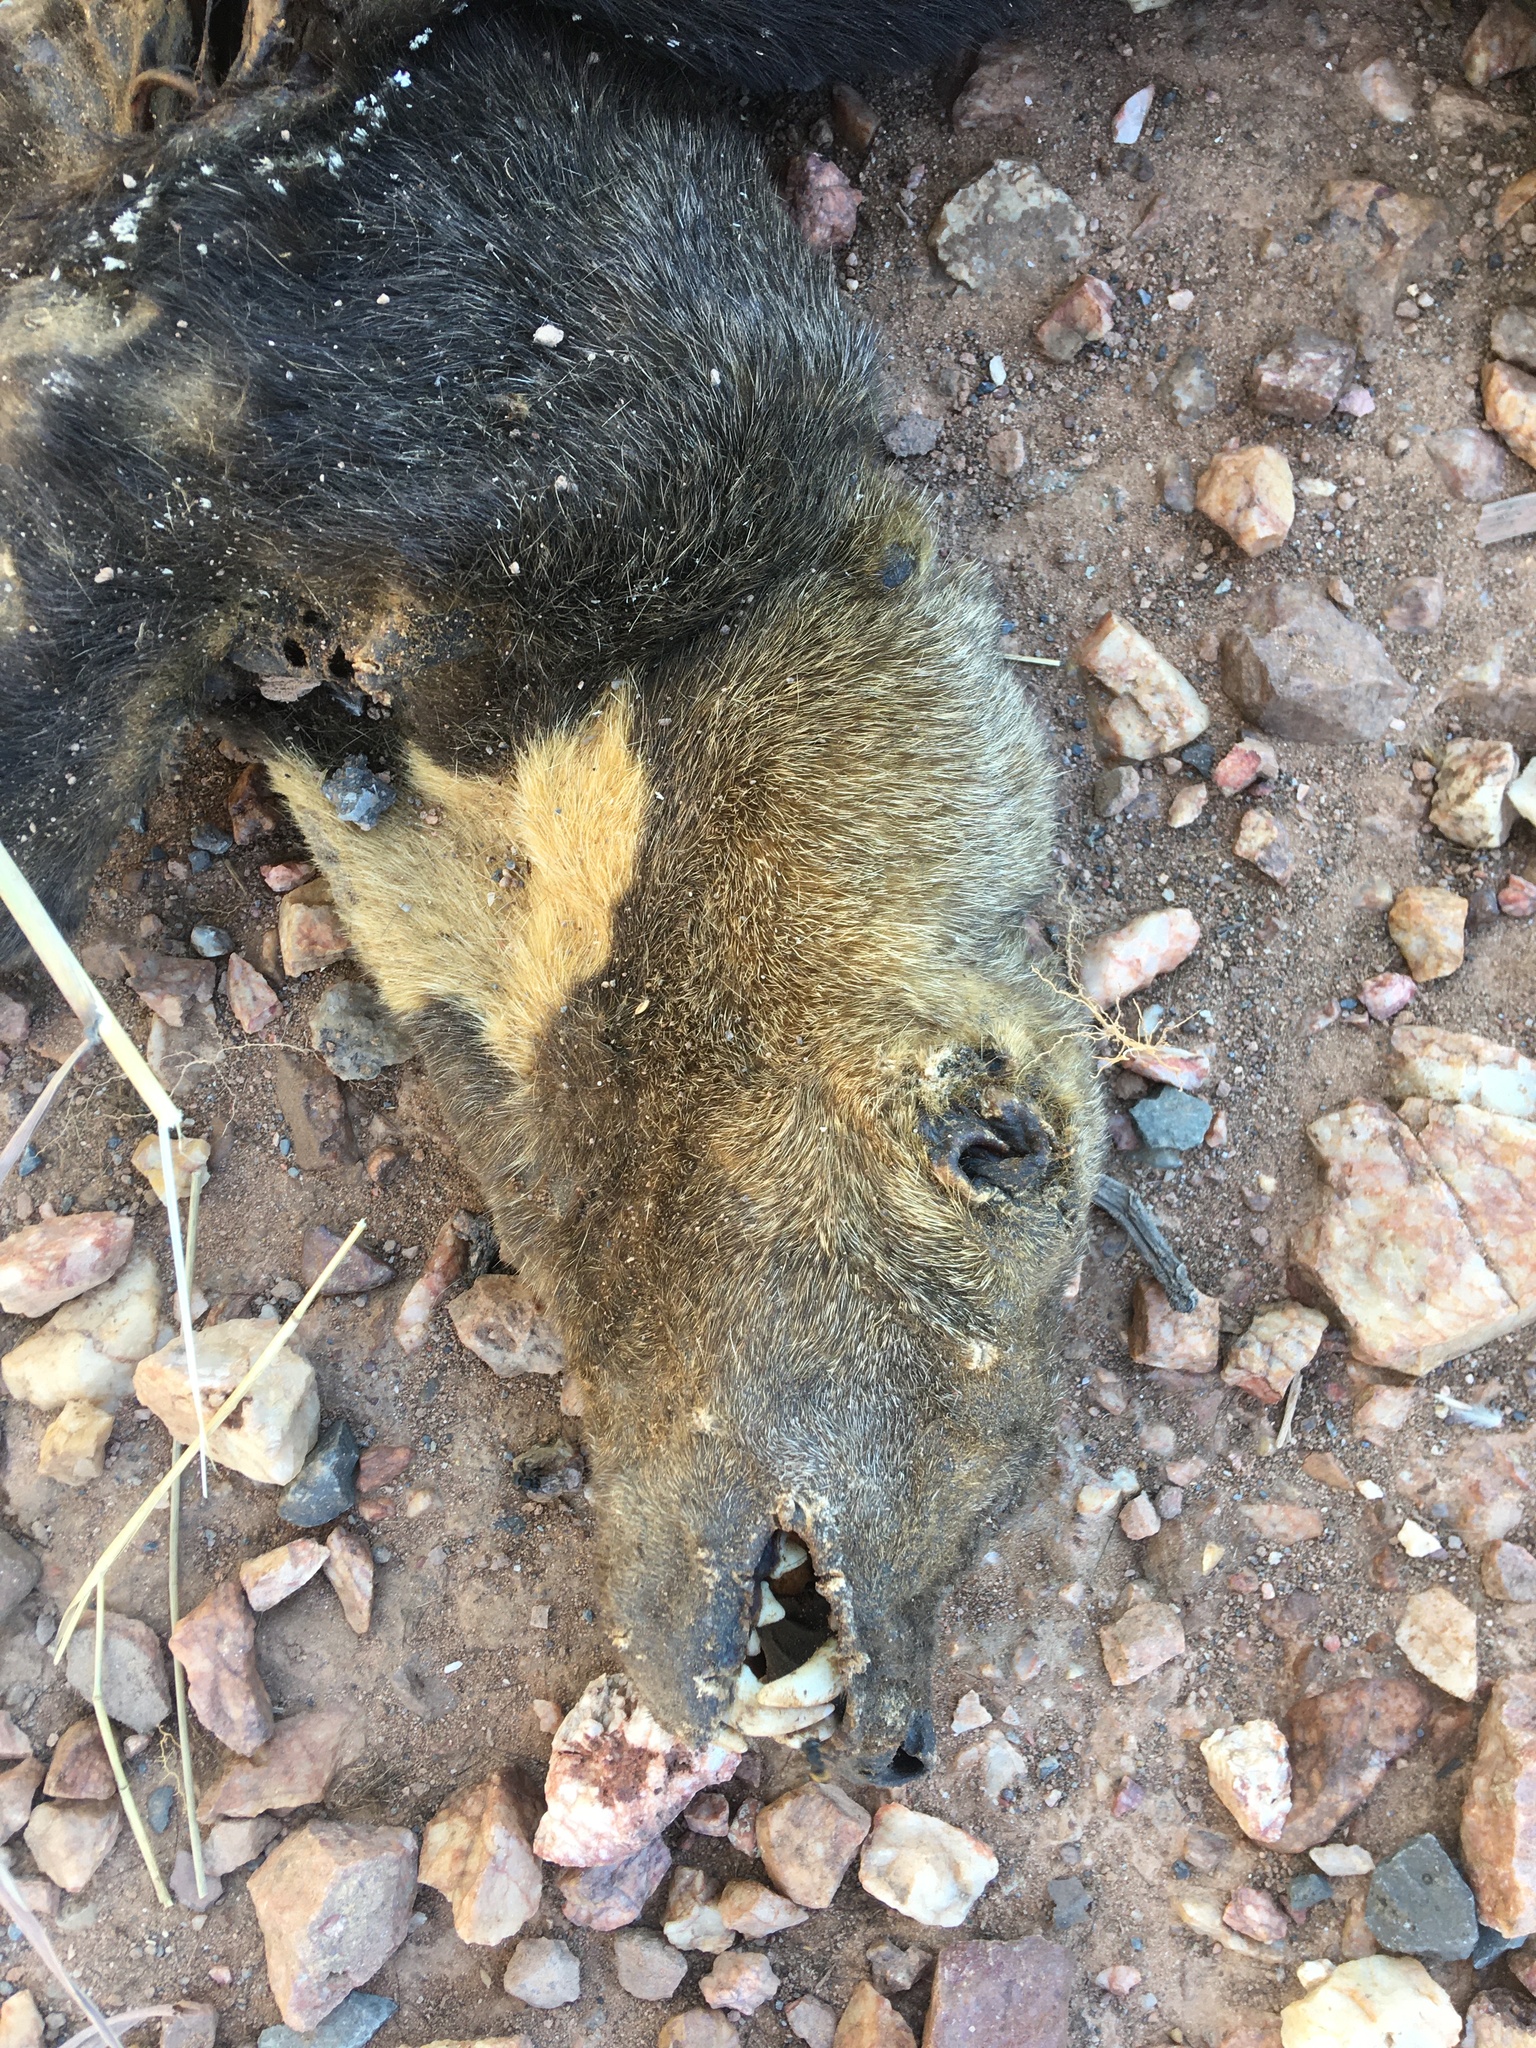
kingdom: Animalia
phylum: Chordata
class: Mammalia
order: Carnivora
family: Mustelidae
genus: Eira
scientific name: Eira barbara
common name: Tayra
